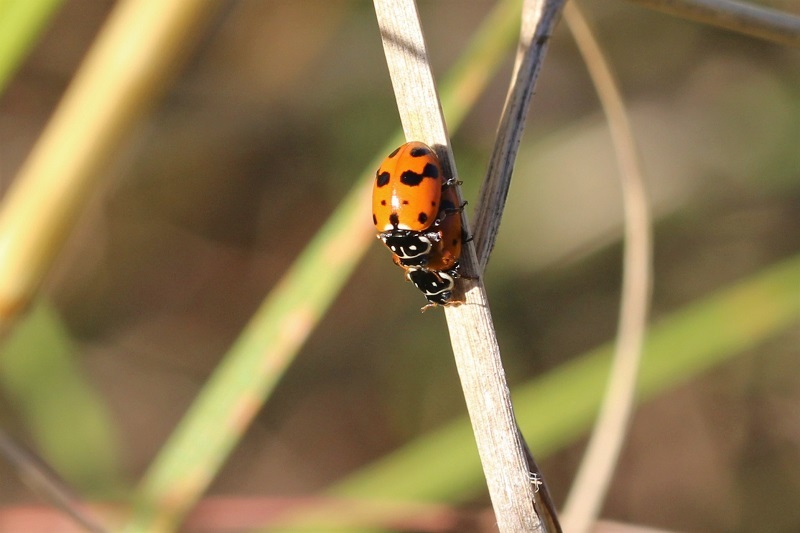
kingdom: Animalia
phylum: Arthropoda
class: Insecta
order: Coleoptera
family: Coccinellidae
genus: Hippodamia
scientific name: Hippodamia variegata
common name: Ladybird beetle
